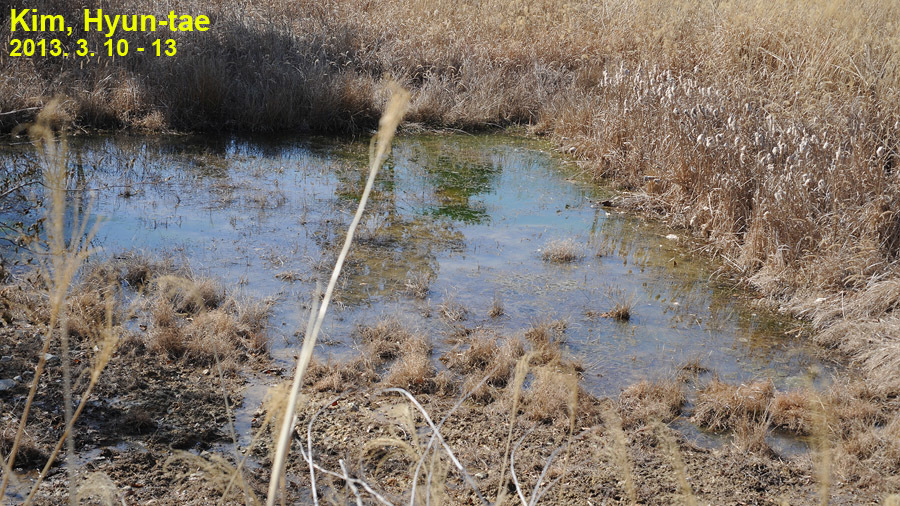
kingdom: Animalia
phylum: Chordata
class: Amphibia
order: Anura
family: Ranidae
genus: Rana
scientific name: Rana coreana
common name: Korean brown frog
